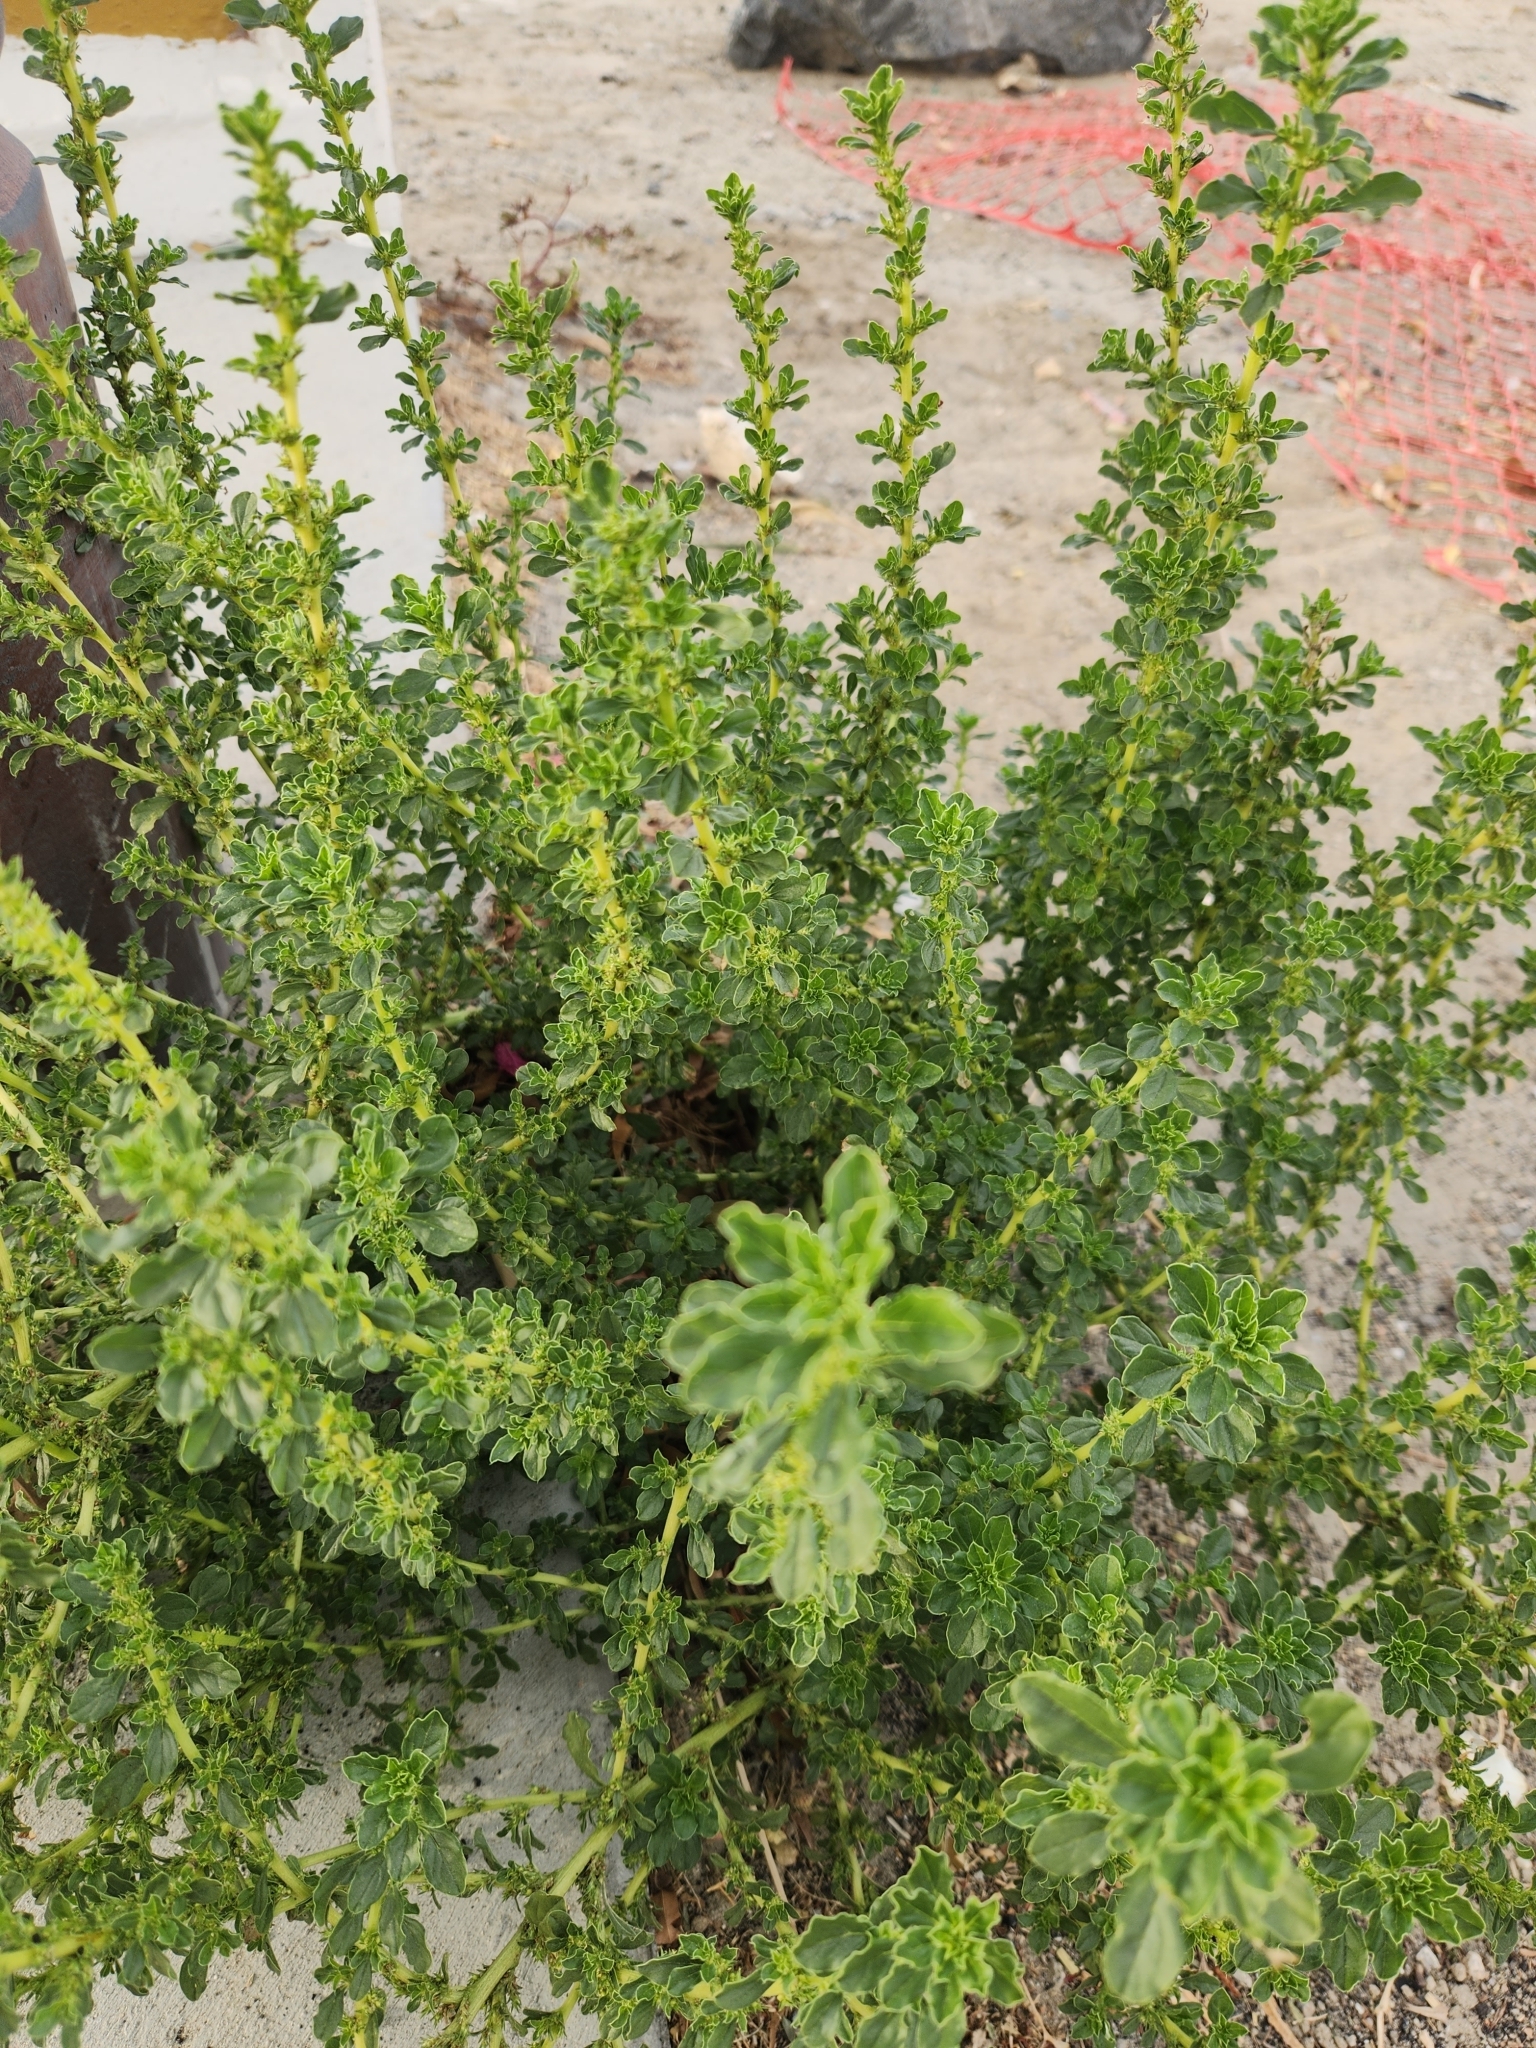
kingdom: Plantae
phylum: Tracheophyta
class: Magnoliopsida
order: Caryophyllales
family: Amaranthaceae
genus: Amaranthus
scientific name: Amaranthus albus
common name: White pigweed
